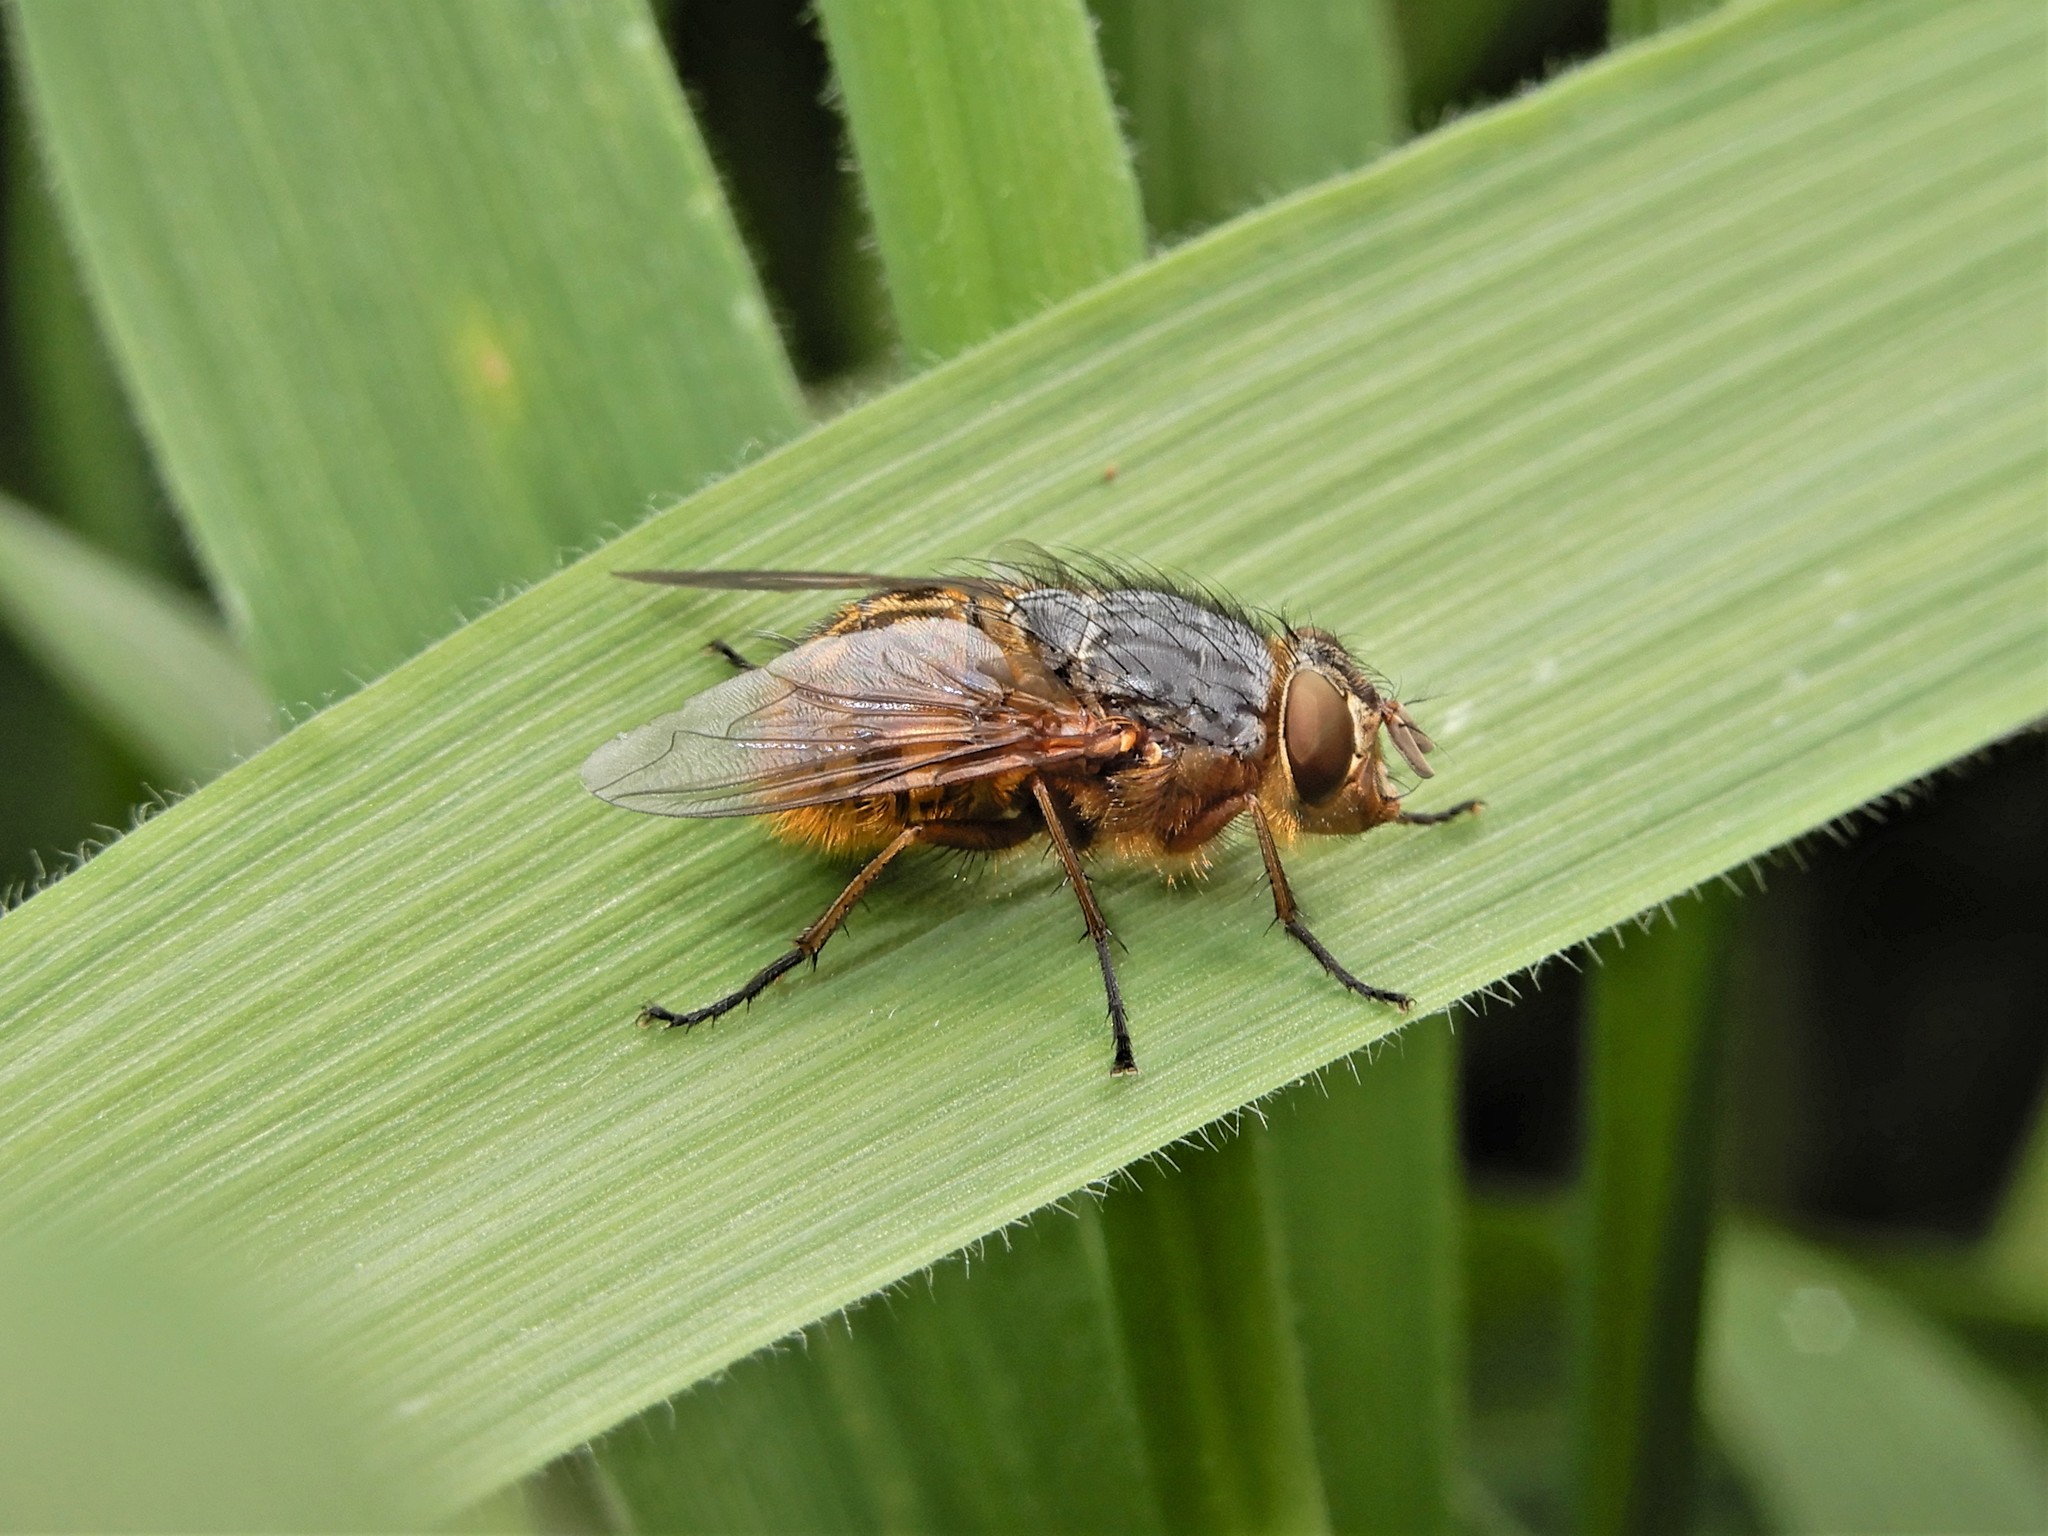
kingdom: Animalia
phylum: Arthropoda
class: Insecta
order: Diptera
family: Calliphoridae
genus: Calliphora
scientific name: Calliphora hilli
